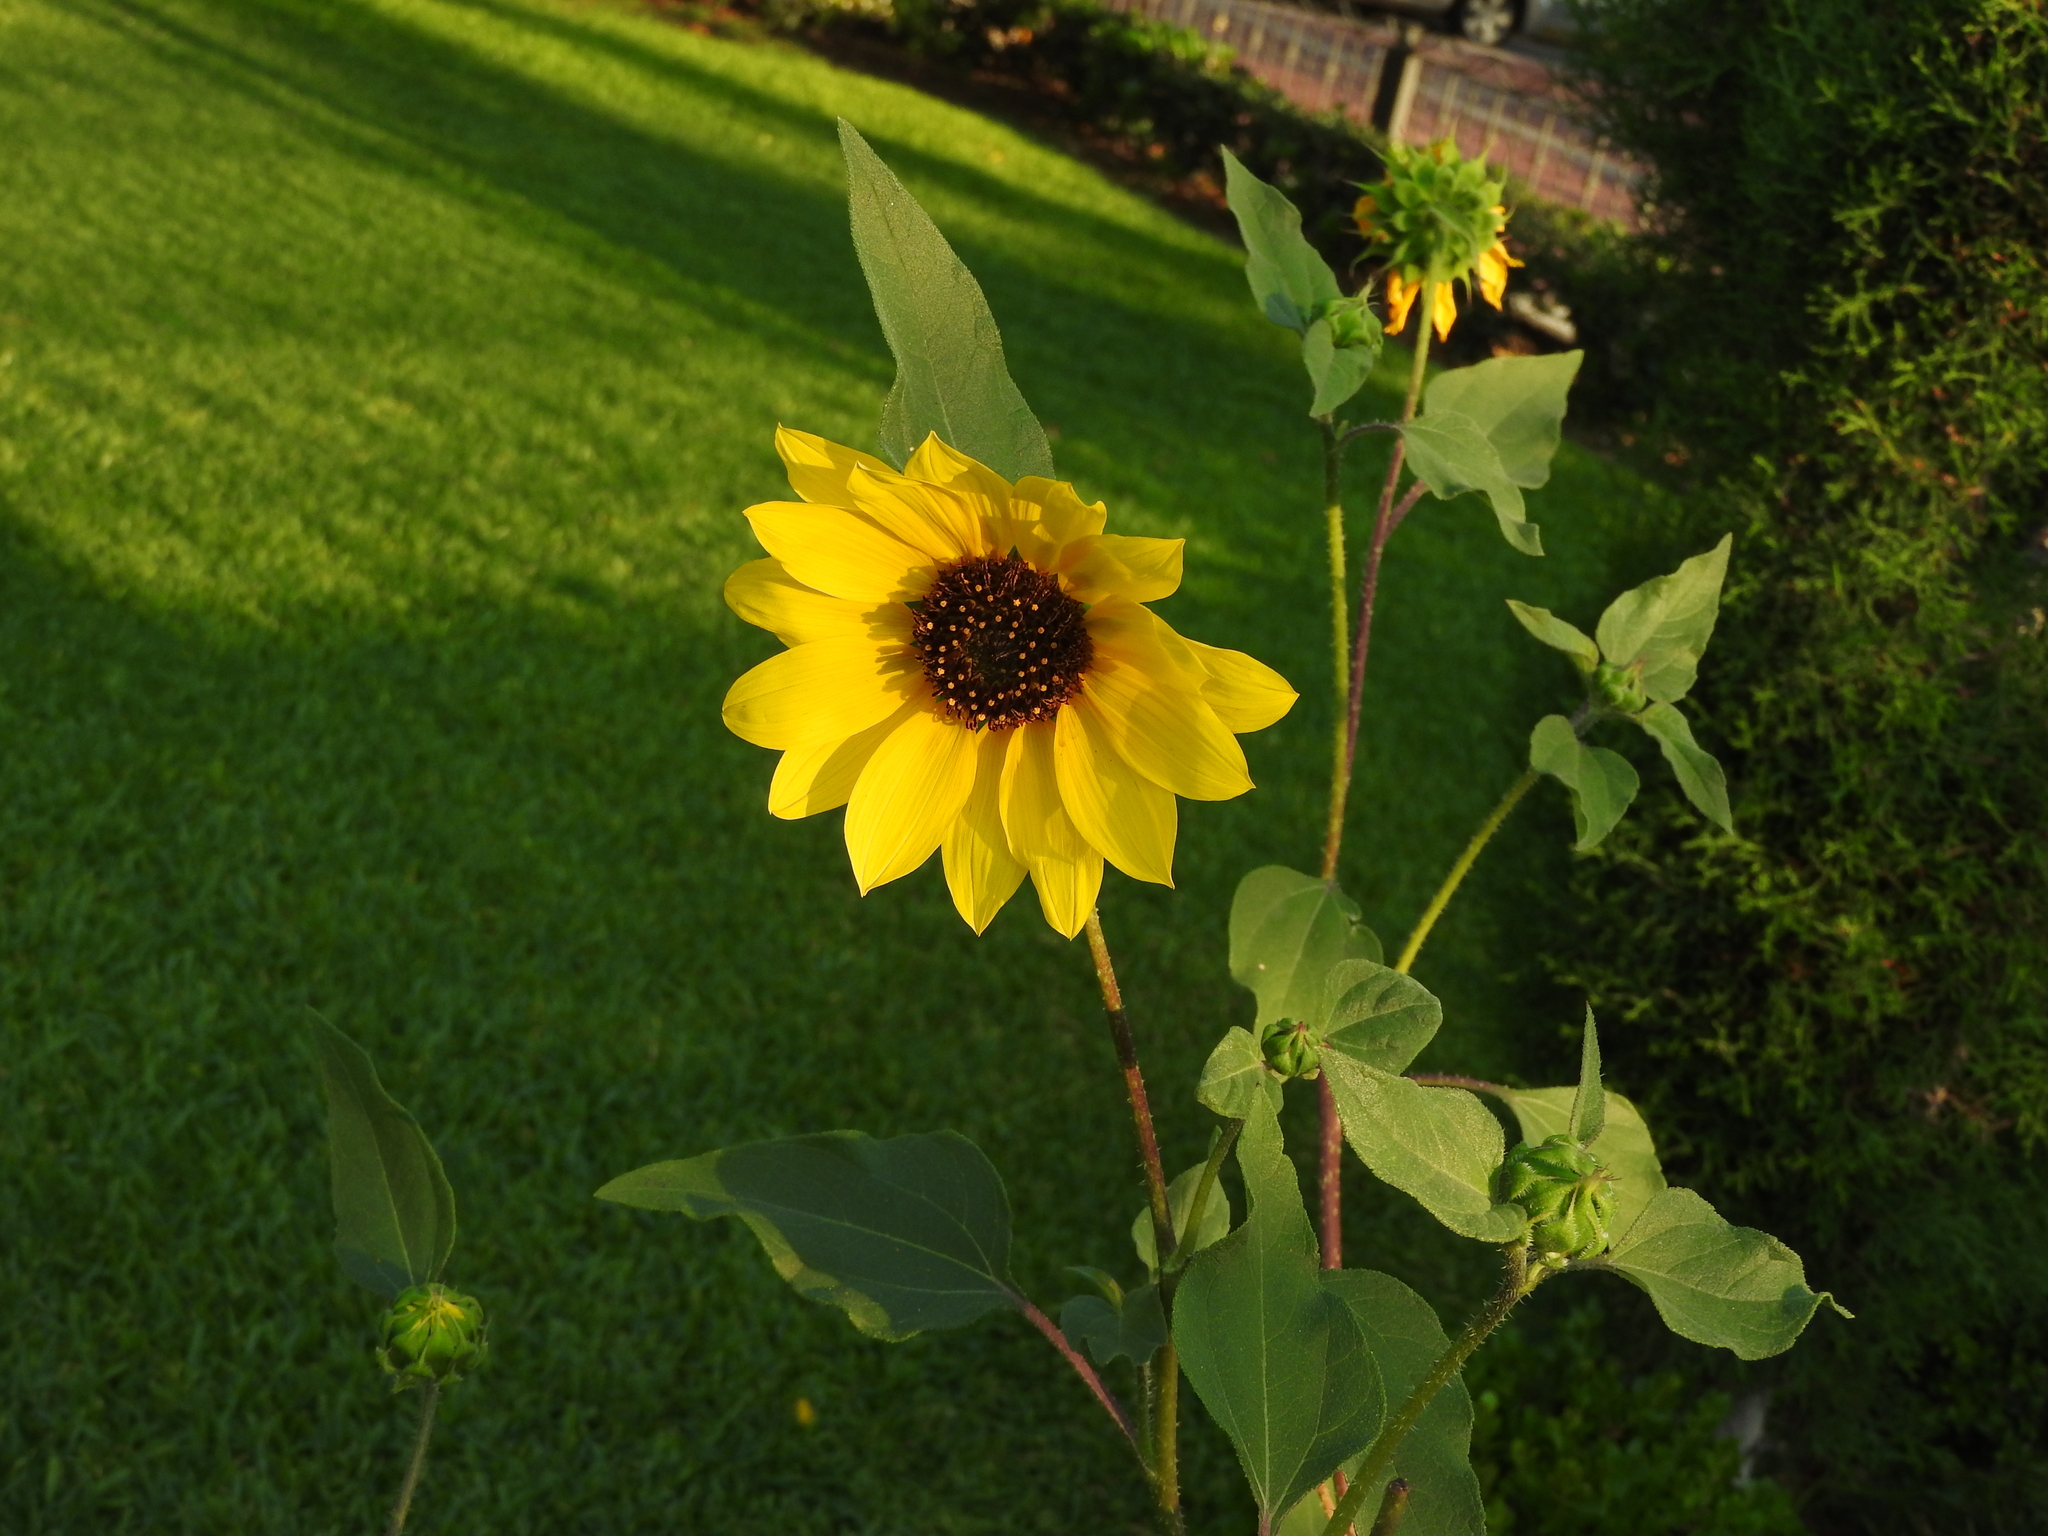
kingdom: Plantae
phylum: Tracheophyta
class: Magnoliopsida
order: Asterales
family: Asteraceae
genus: Helianthus
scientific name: Helianthus annuus
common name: Sunflower
